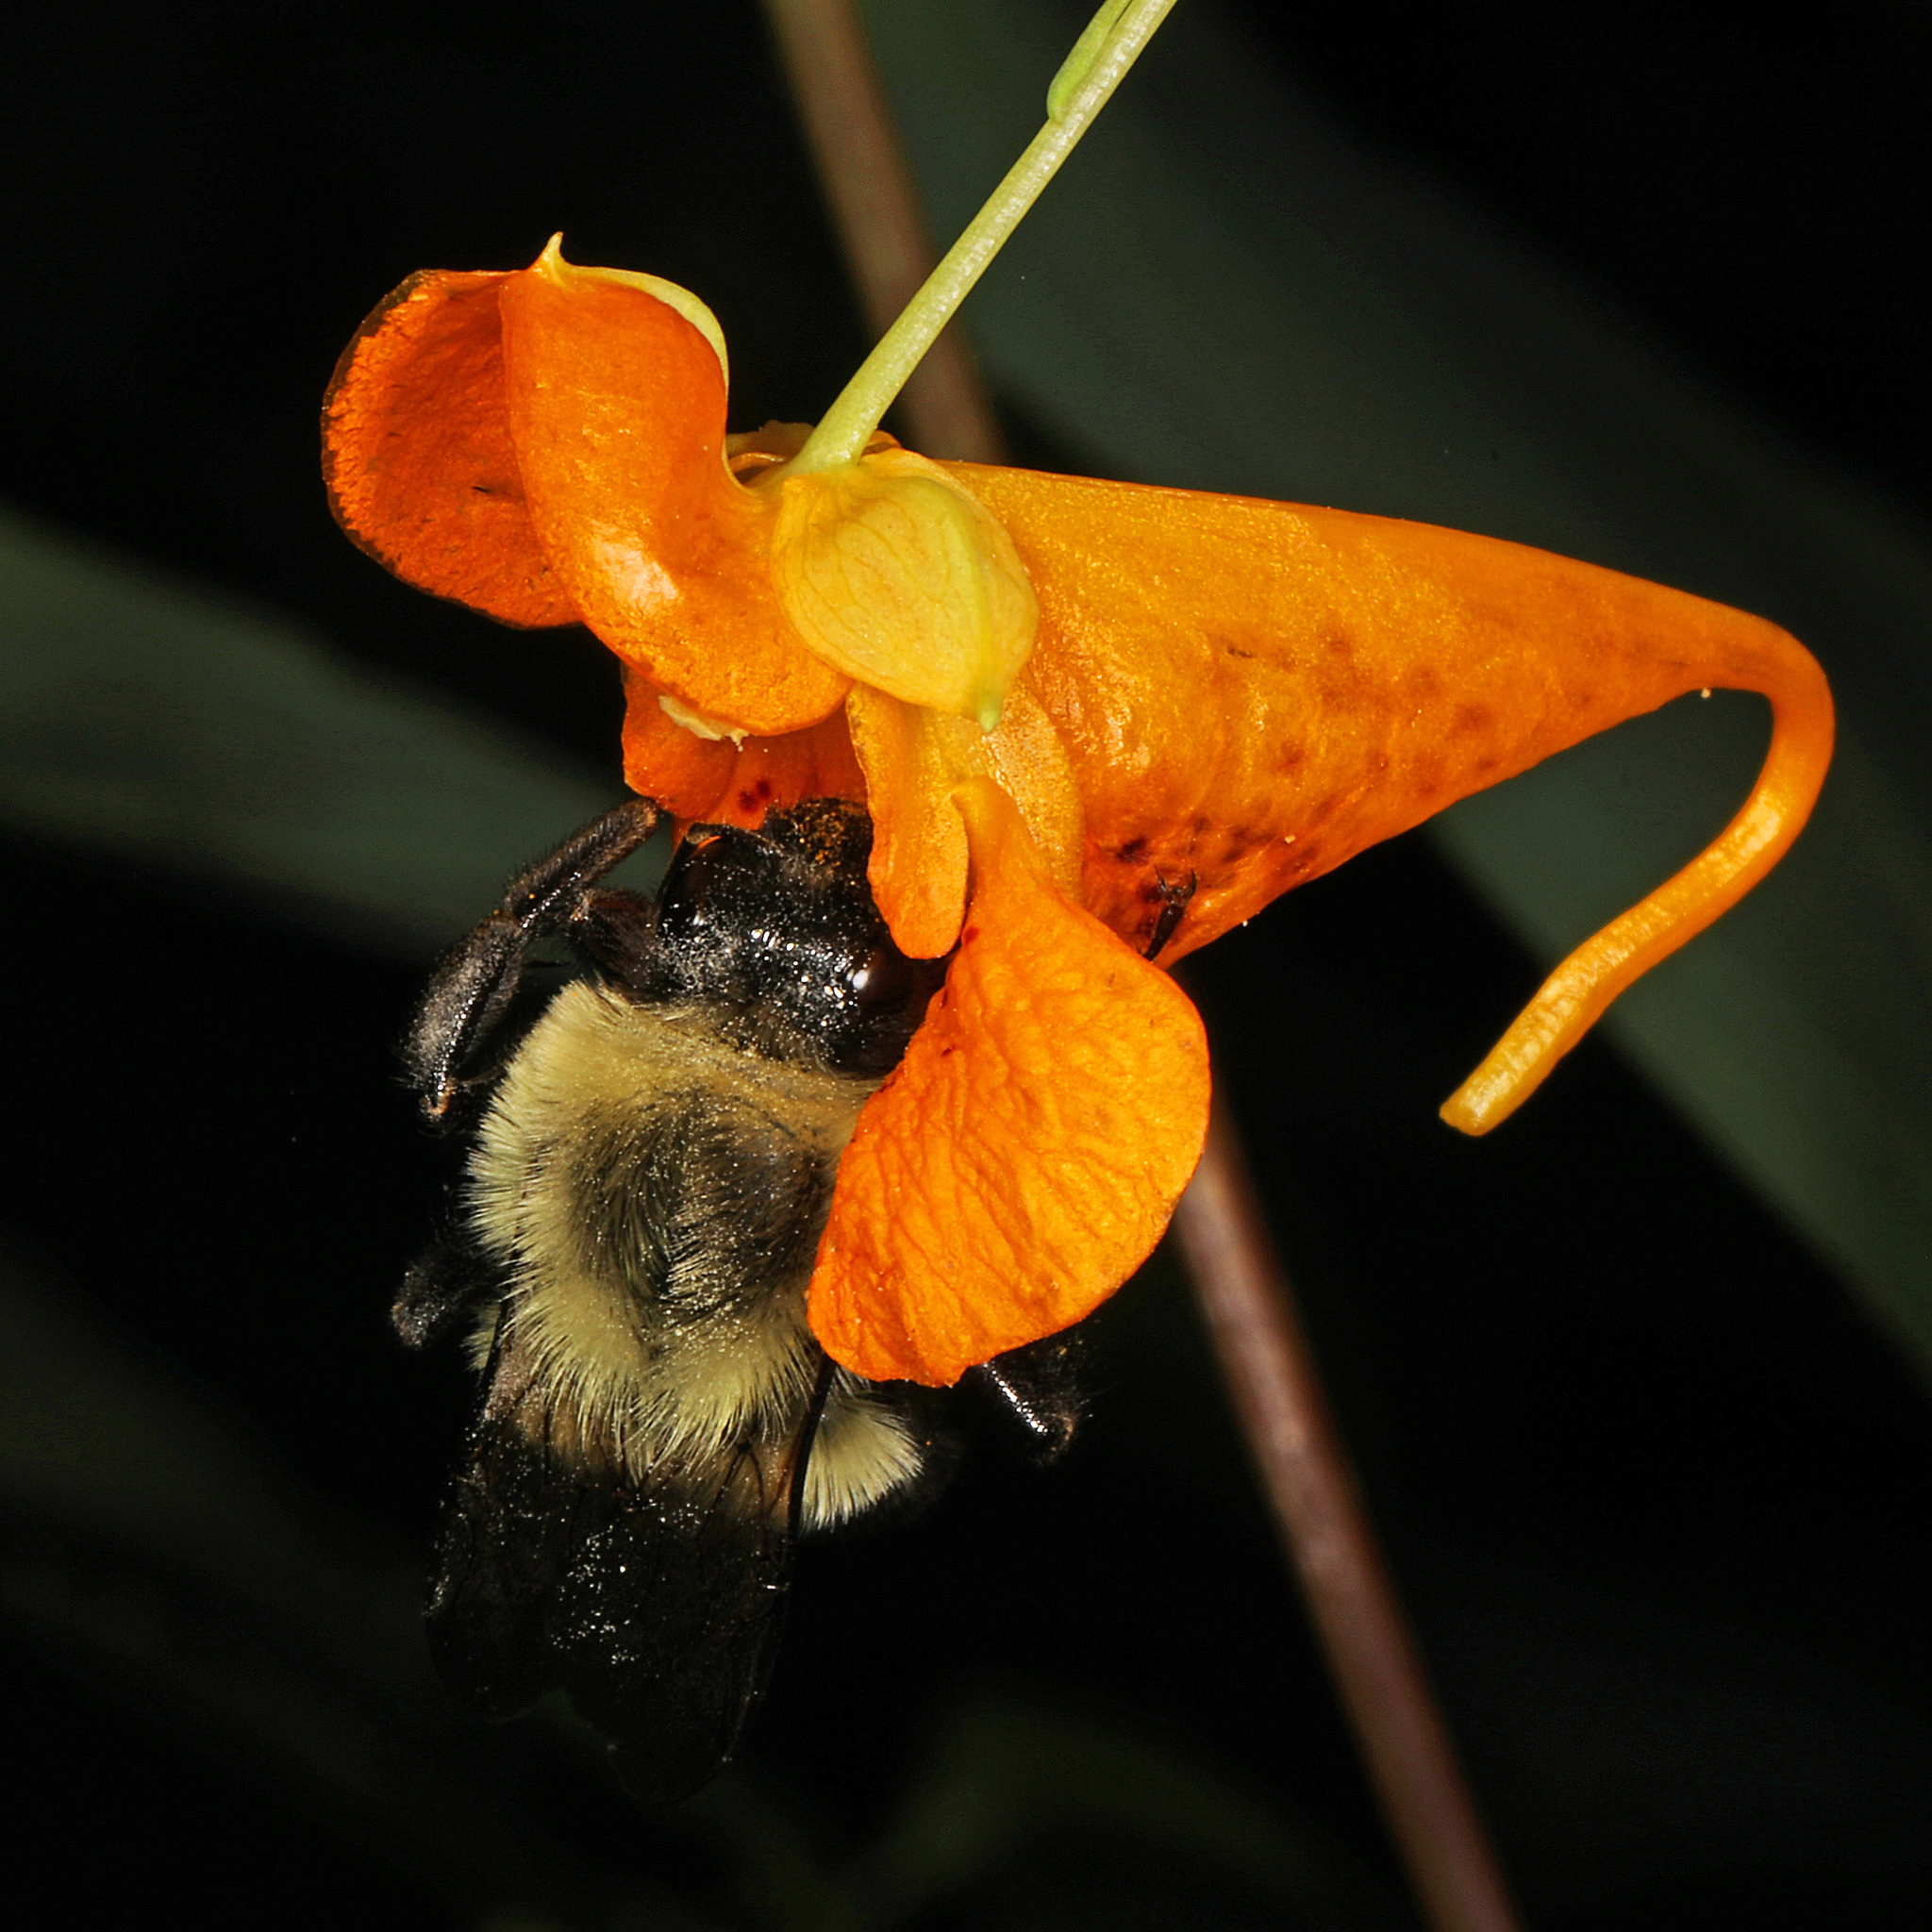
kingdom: Animalia
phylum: Arthropoda
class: Insecta
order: Hymenoptera
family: Apidae
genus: Bombus
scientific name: Bombus impatiens
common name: Common eastern bumble bee
